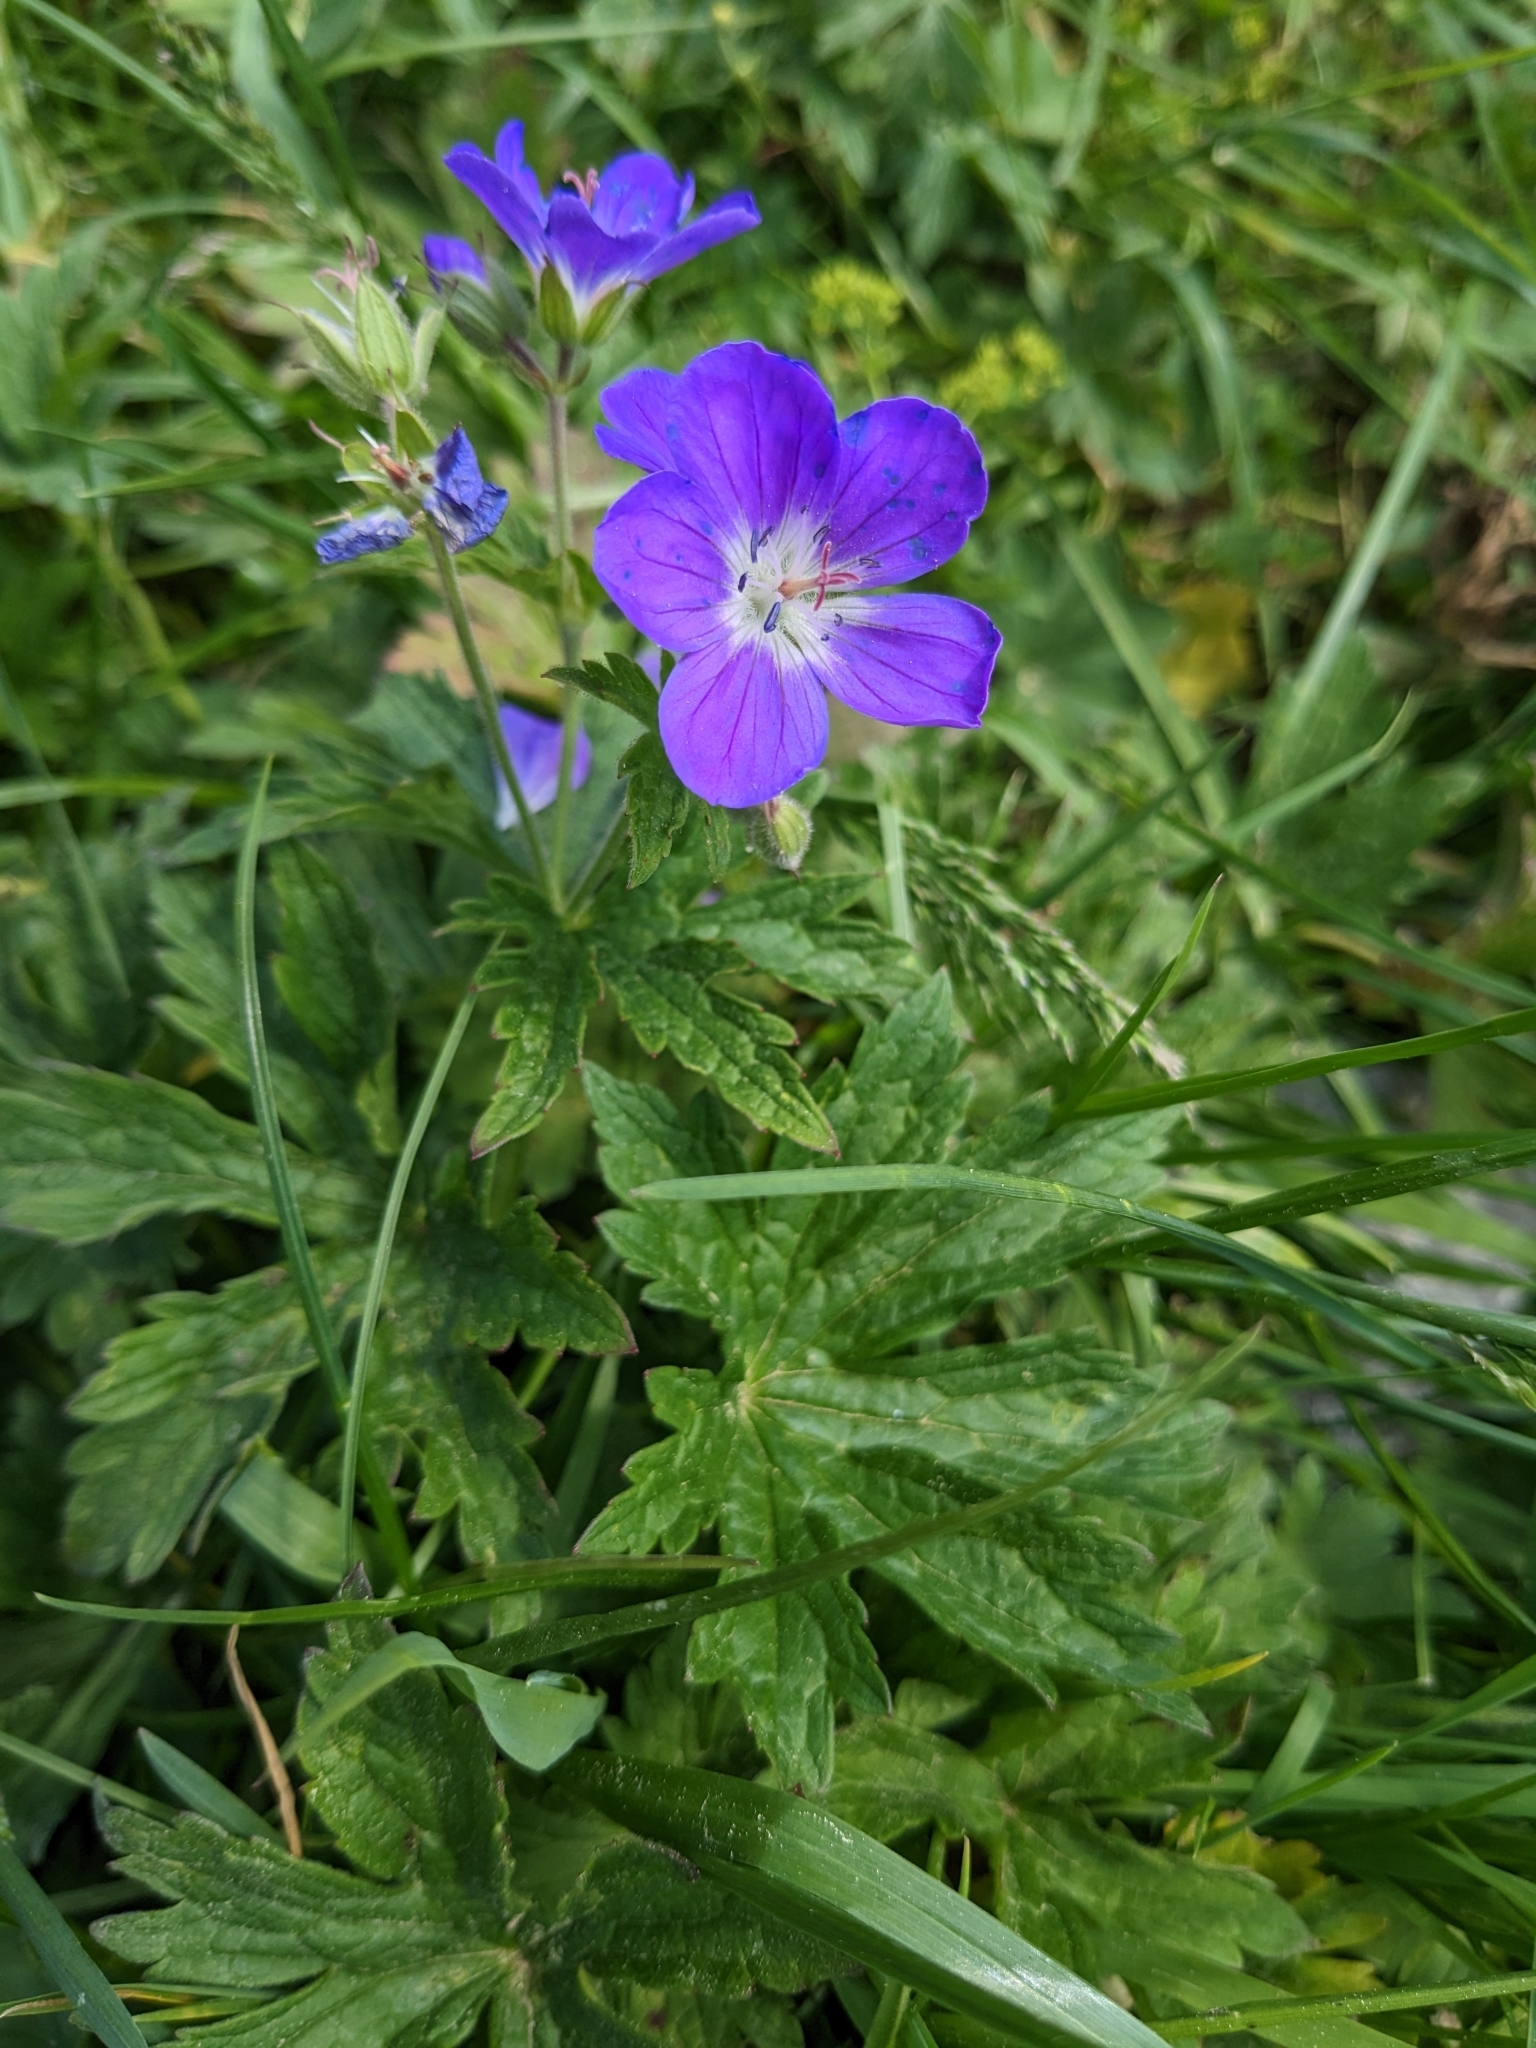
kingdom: Plantae
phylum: Tracheophyta
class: Magnoliopsida
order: Geraniales
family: Geraniaceae
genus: Geranium
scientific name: Geranium sylvaticum
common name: Wood crane's-bill
